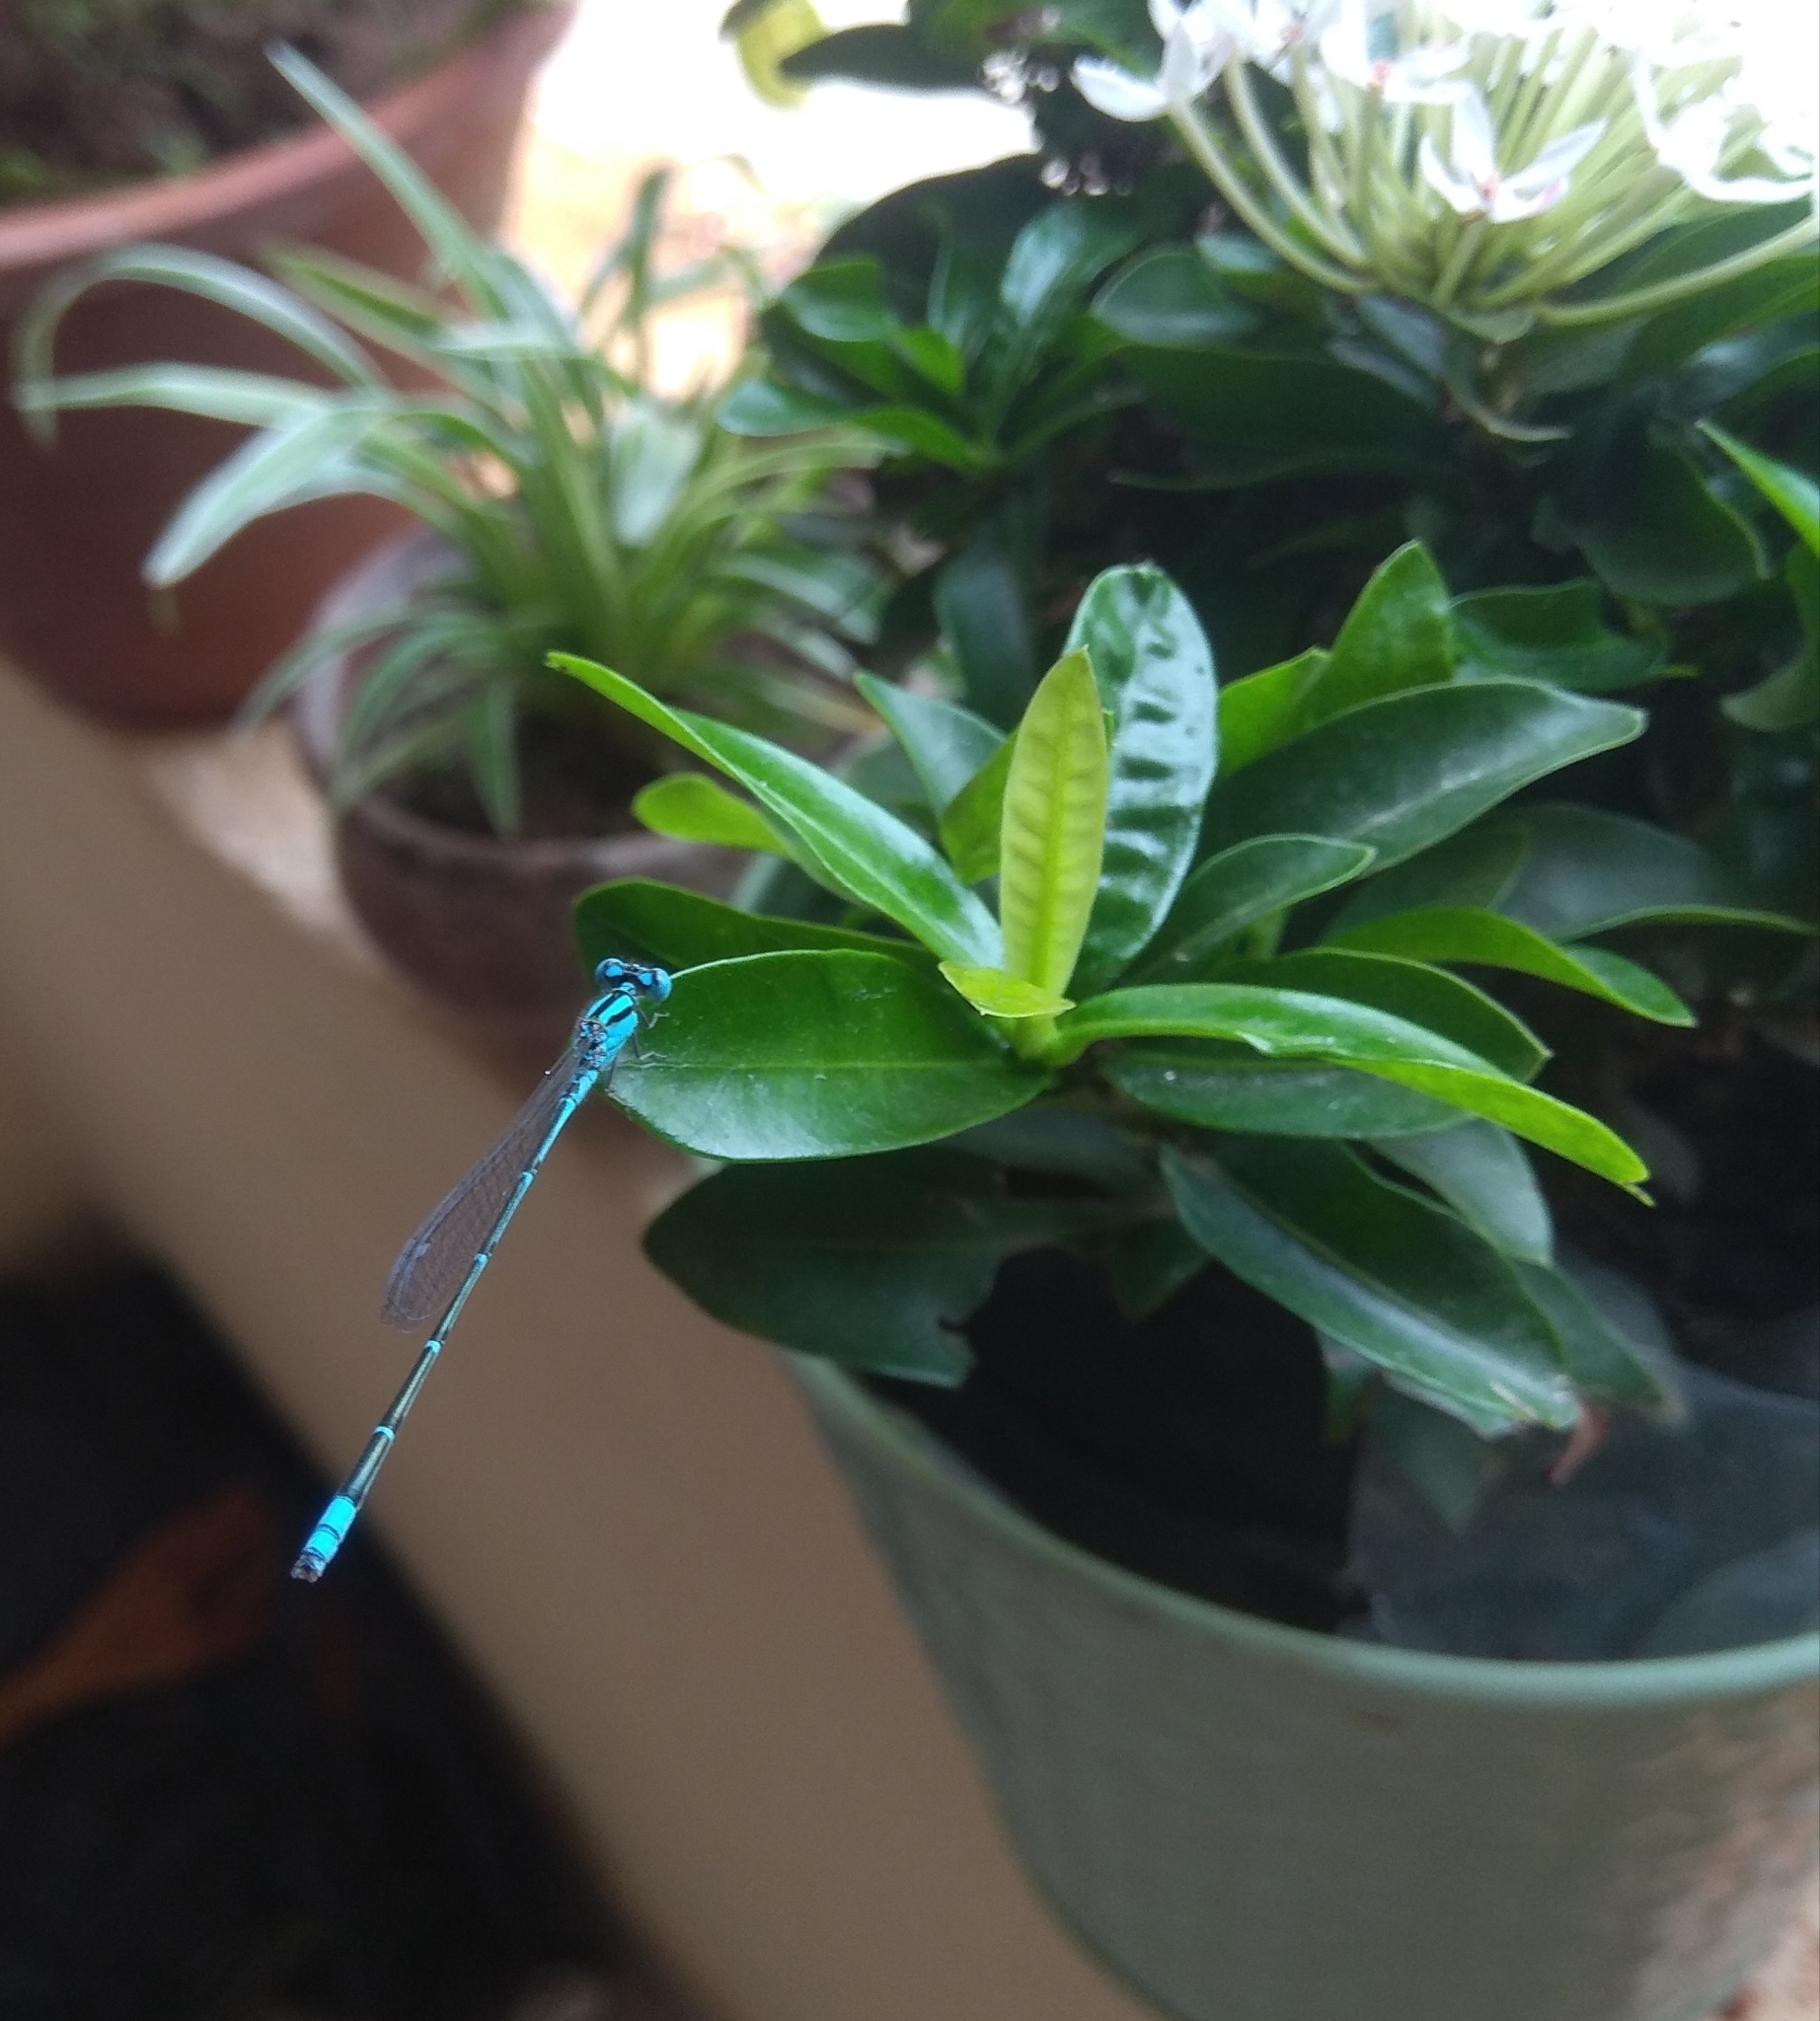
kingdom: Animalia
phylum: Arthropoda
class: Insecta
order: Odonata
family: Coenagrionidae
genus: Pseudagrion
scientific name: Pseudagrion microcephalum
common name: Blue riverdamsel
